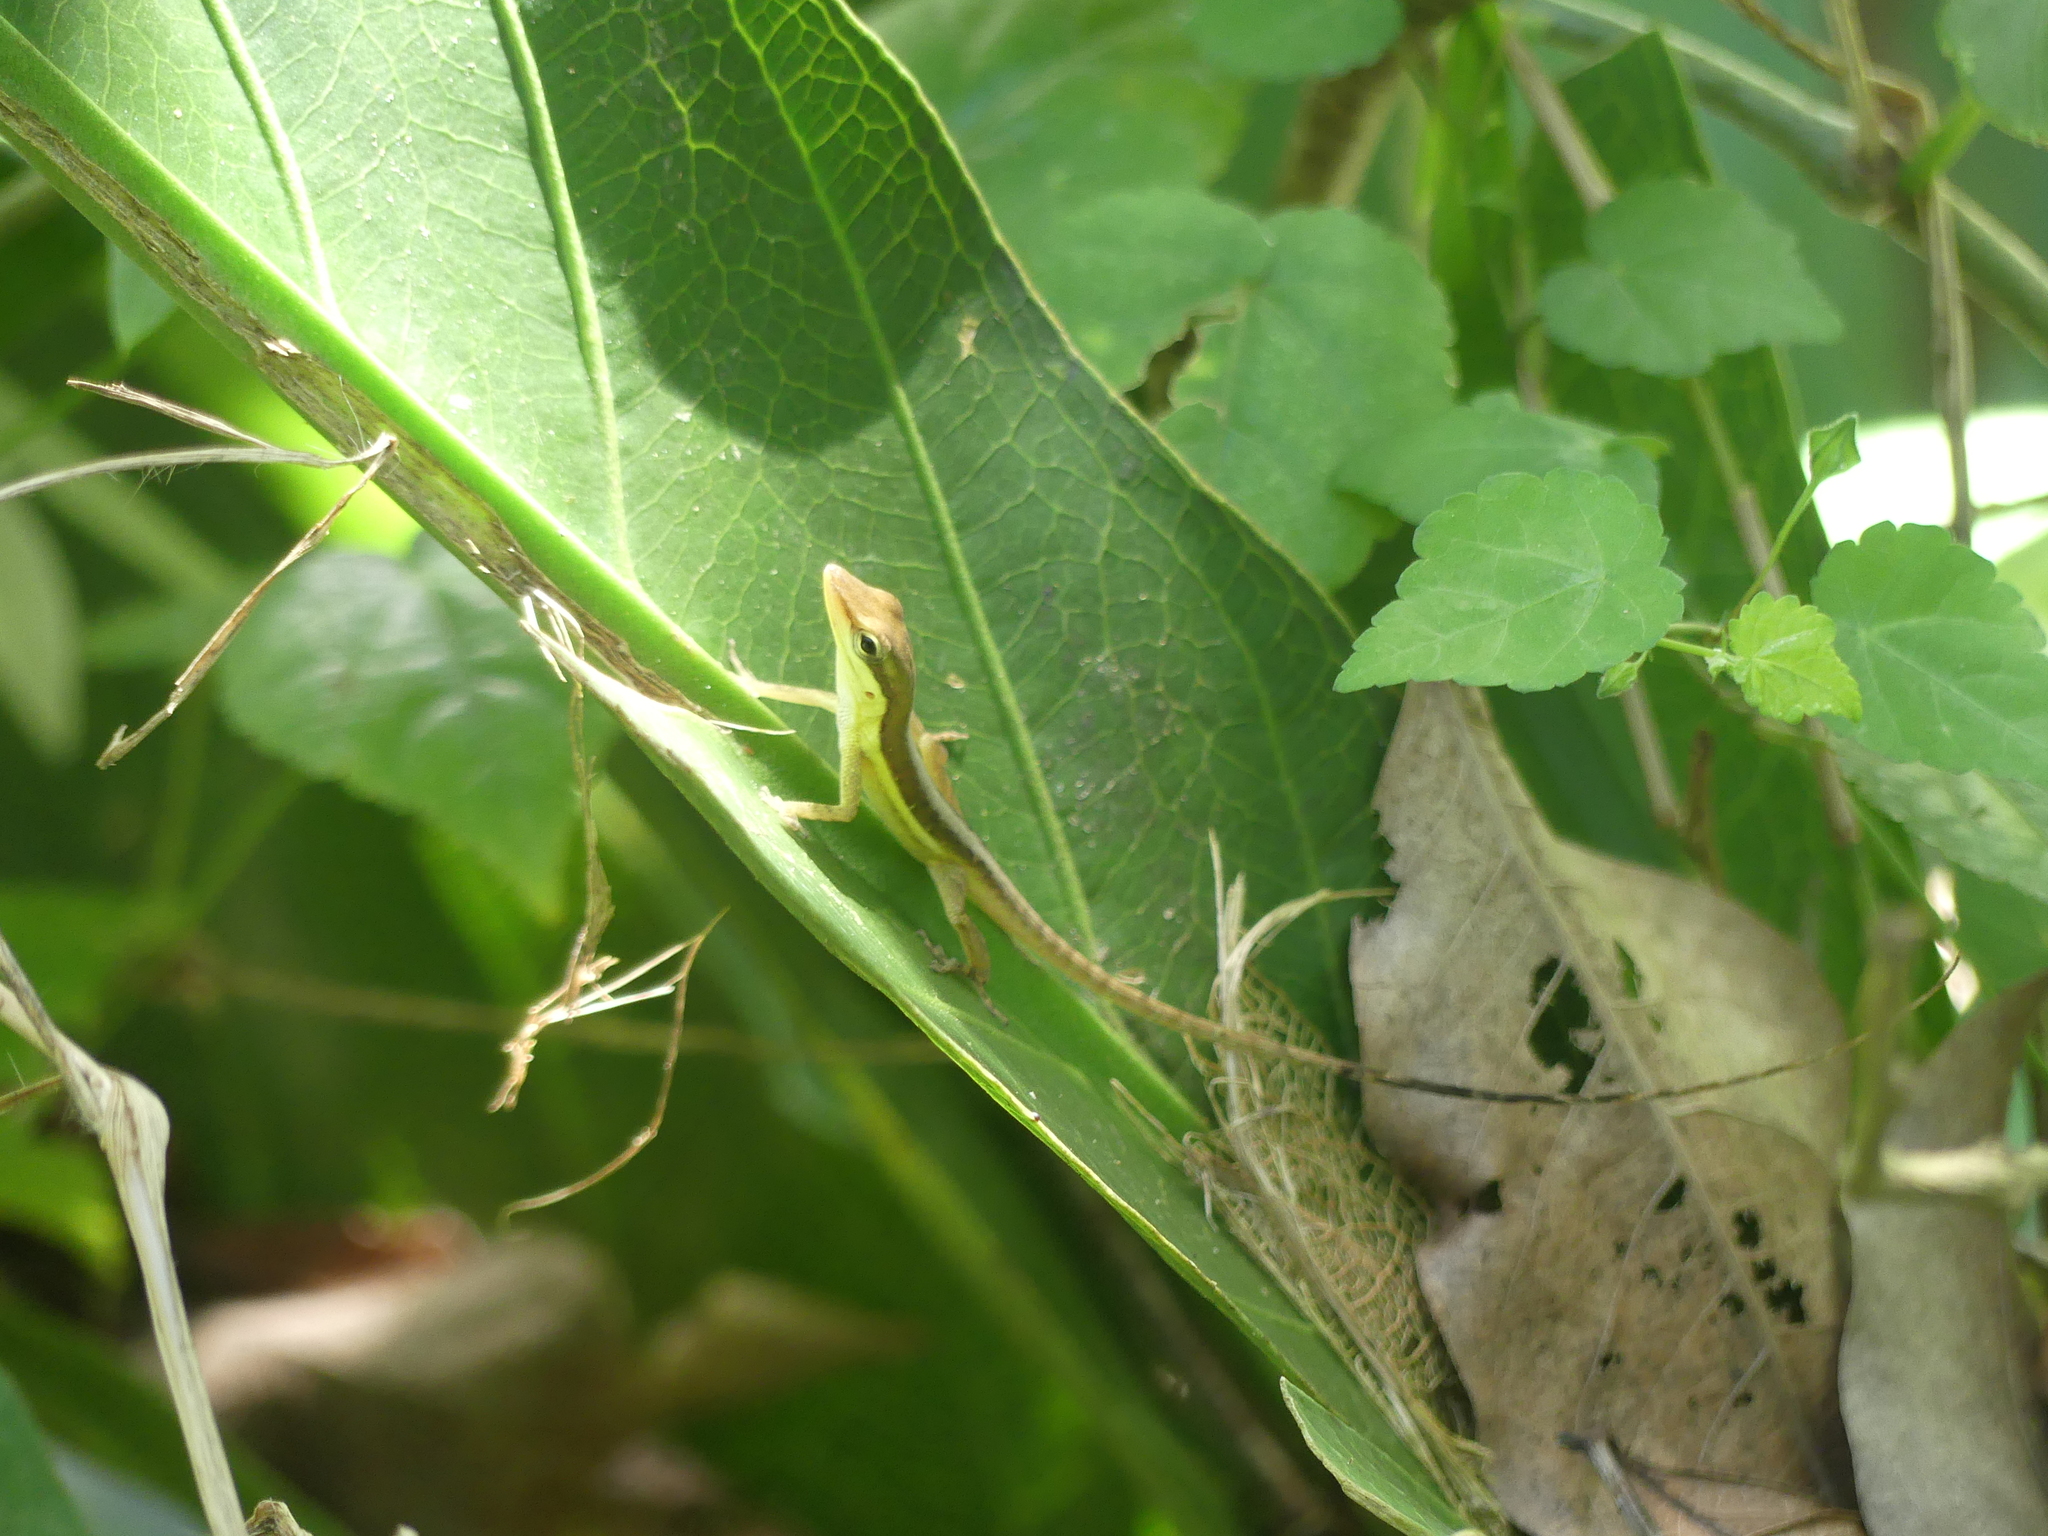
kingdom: Animalia
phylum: Chordata
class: Squamata
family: Dactyloidae
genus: Anolis
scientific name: Anolis pulchellus
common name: Puerto rican anole
